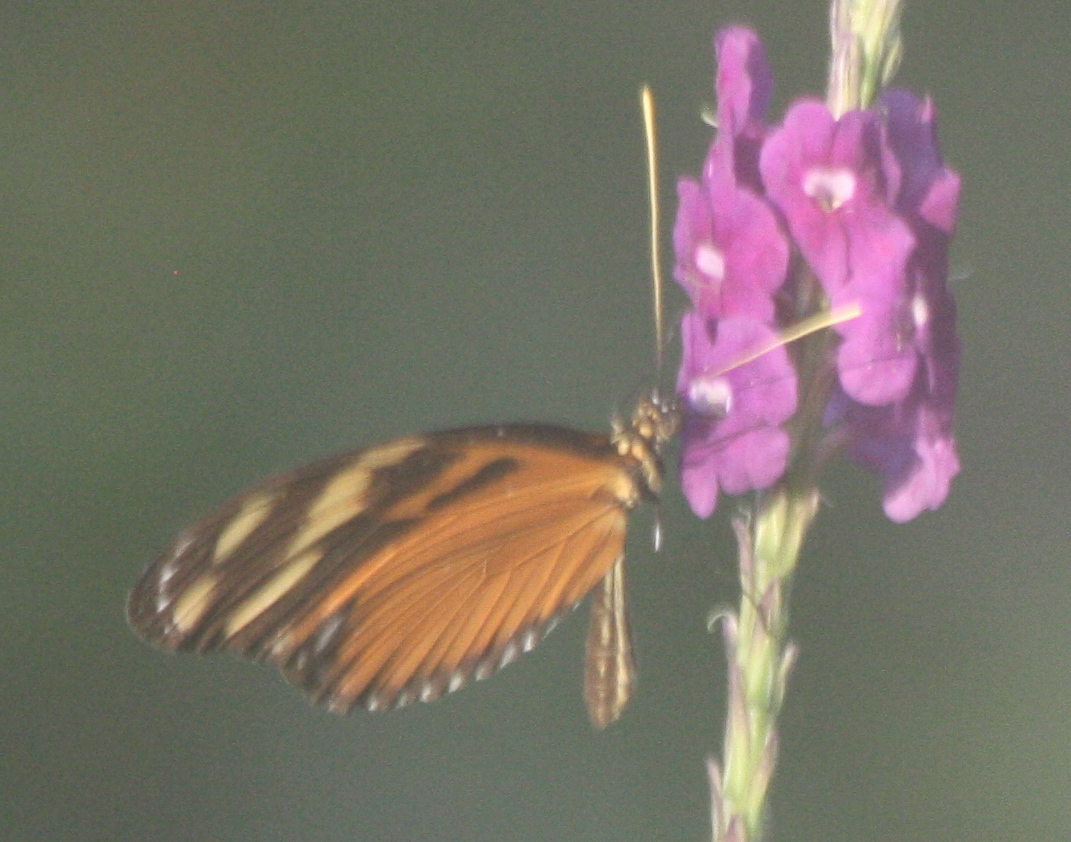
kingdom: Animalia
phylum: Arthropoda
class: Insecta
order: Lepidoptera
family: Nymphalidae
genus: Heliconius
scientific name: Heliconius ismenius
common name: Ismenius tiger
